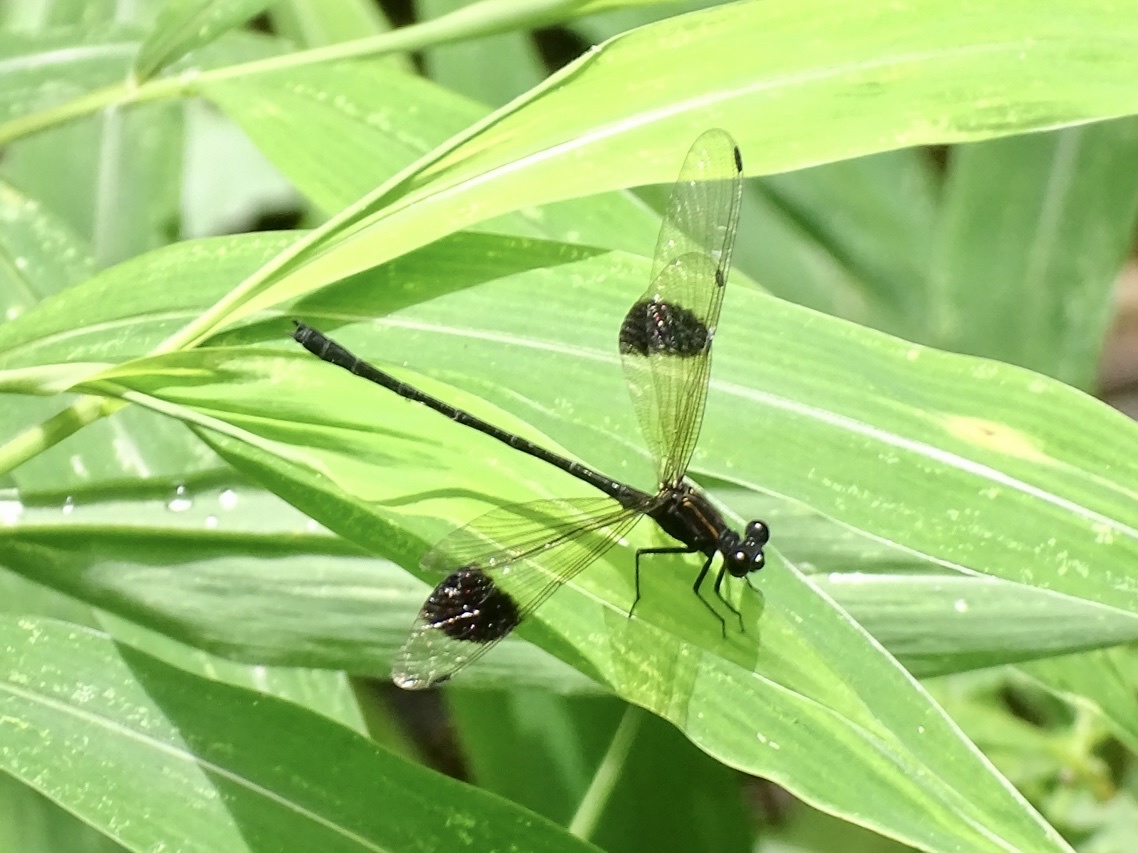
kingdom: Animalia
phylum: Arthropoda
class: Insecta
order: Odonata
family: Euphaeidae
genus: Euphaea
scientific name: Euphaea decorata
